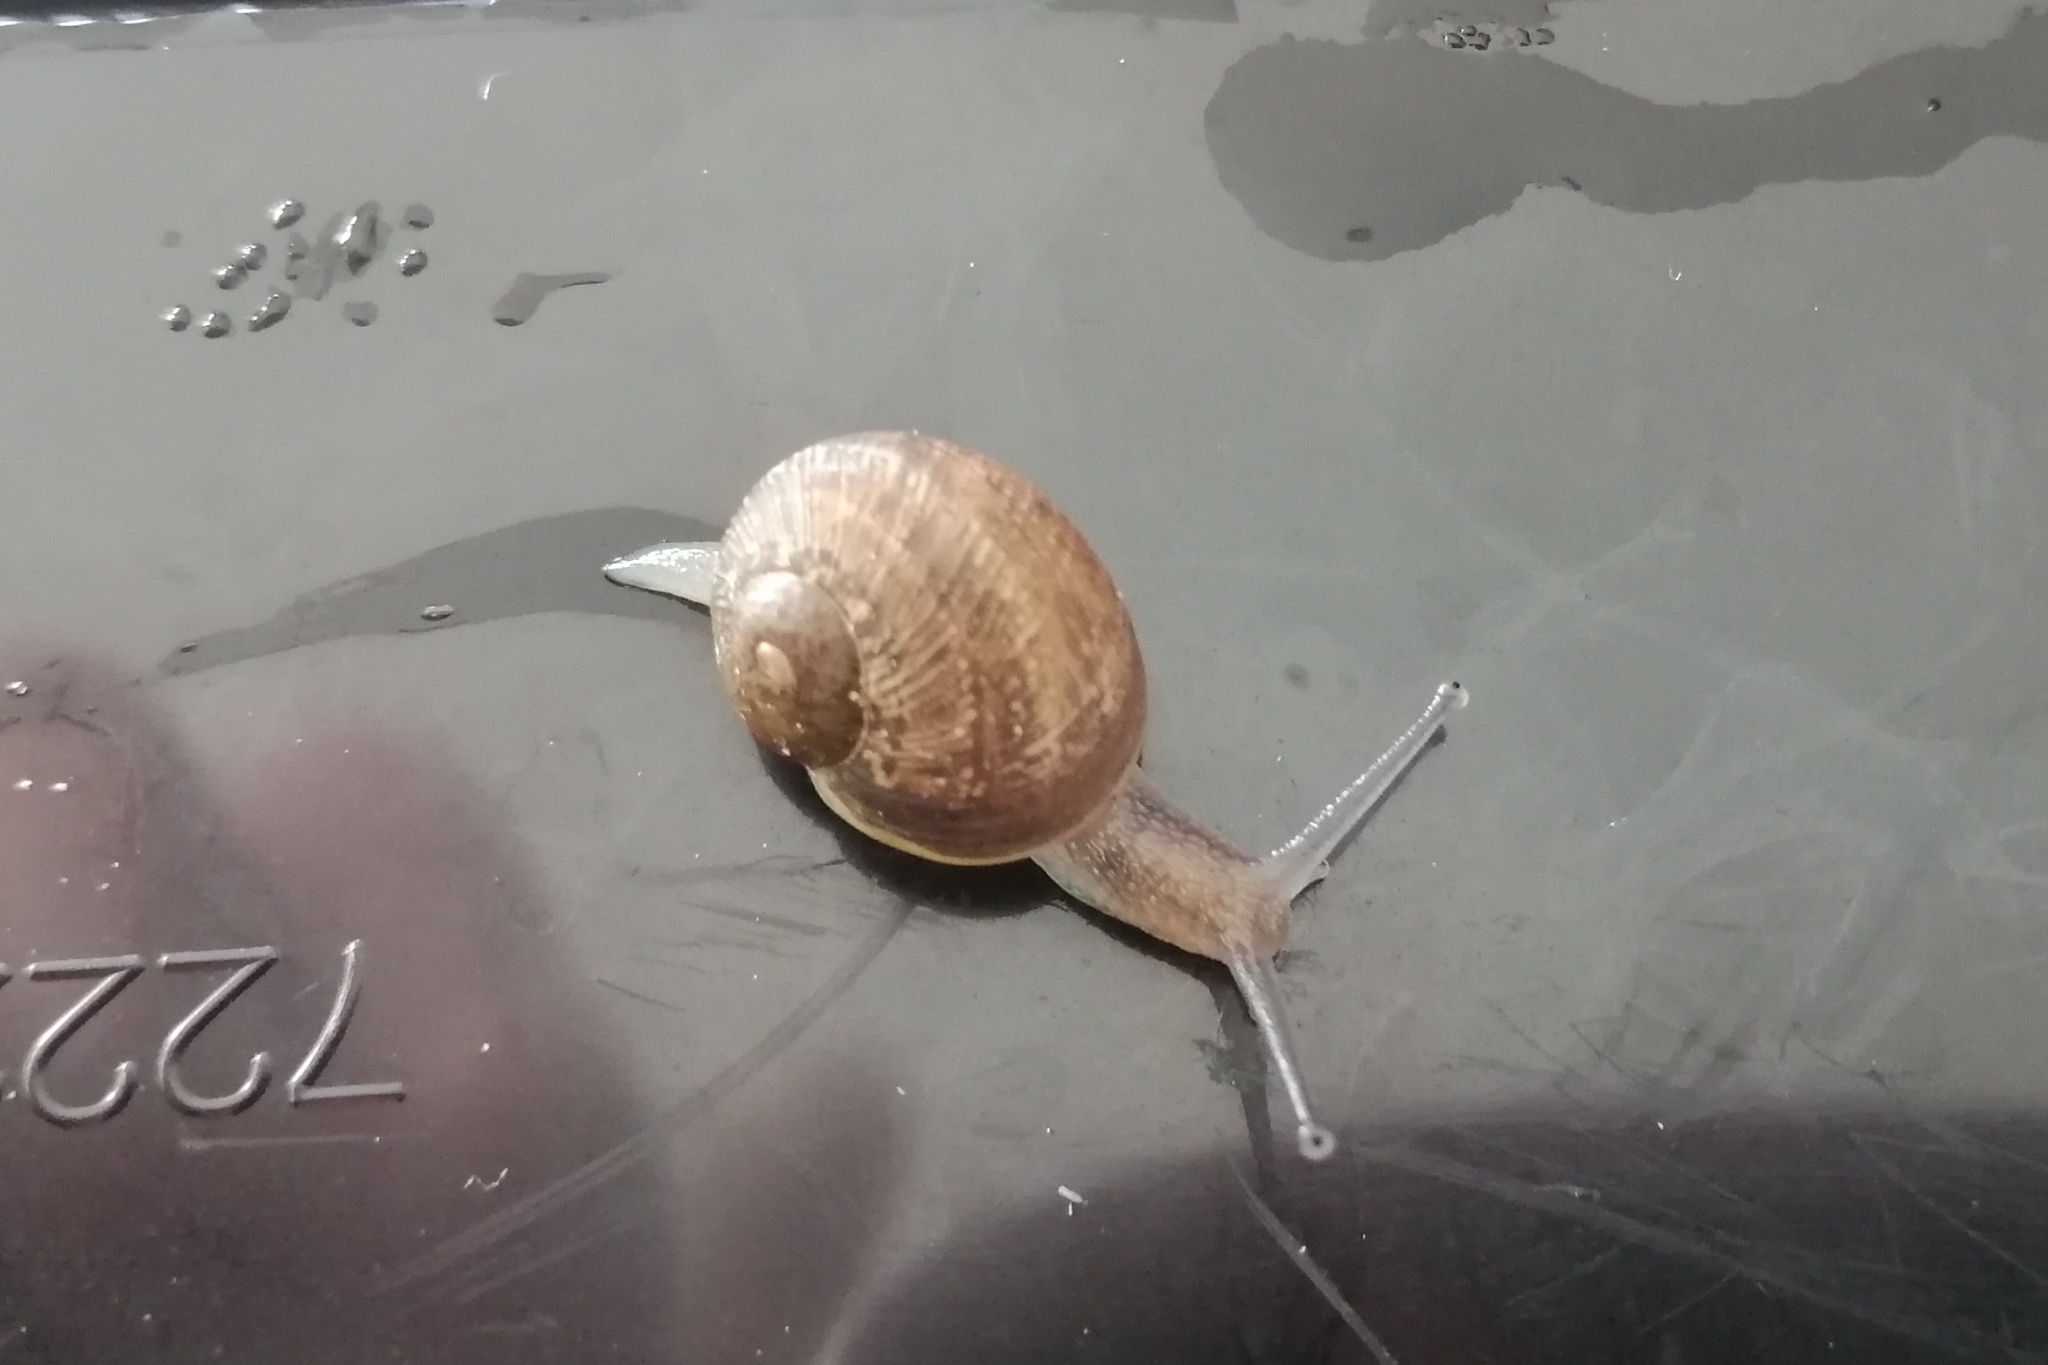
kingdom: Animalia
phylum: Mollusca
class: Gastropoda
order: Stylommatophora
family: Helicidae
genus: Cornu
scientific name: Cornu aspersum
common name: Brown garden snail
